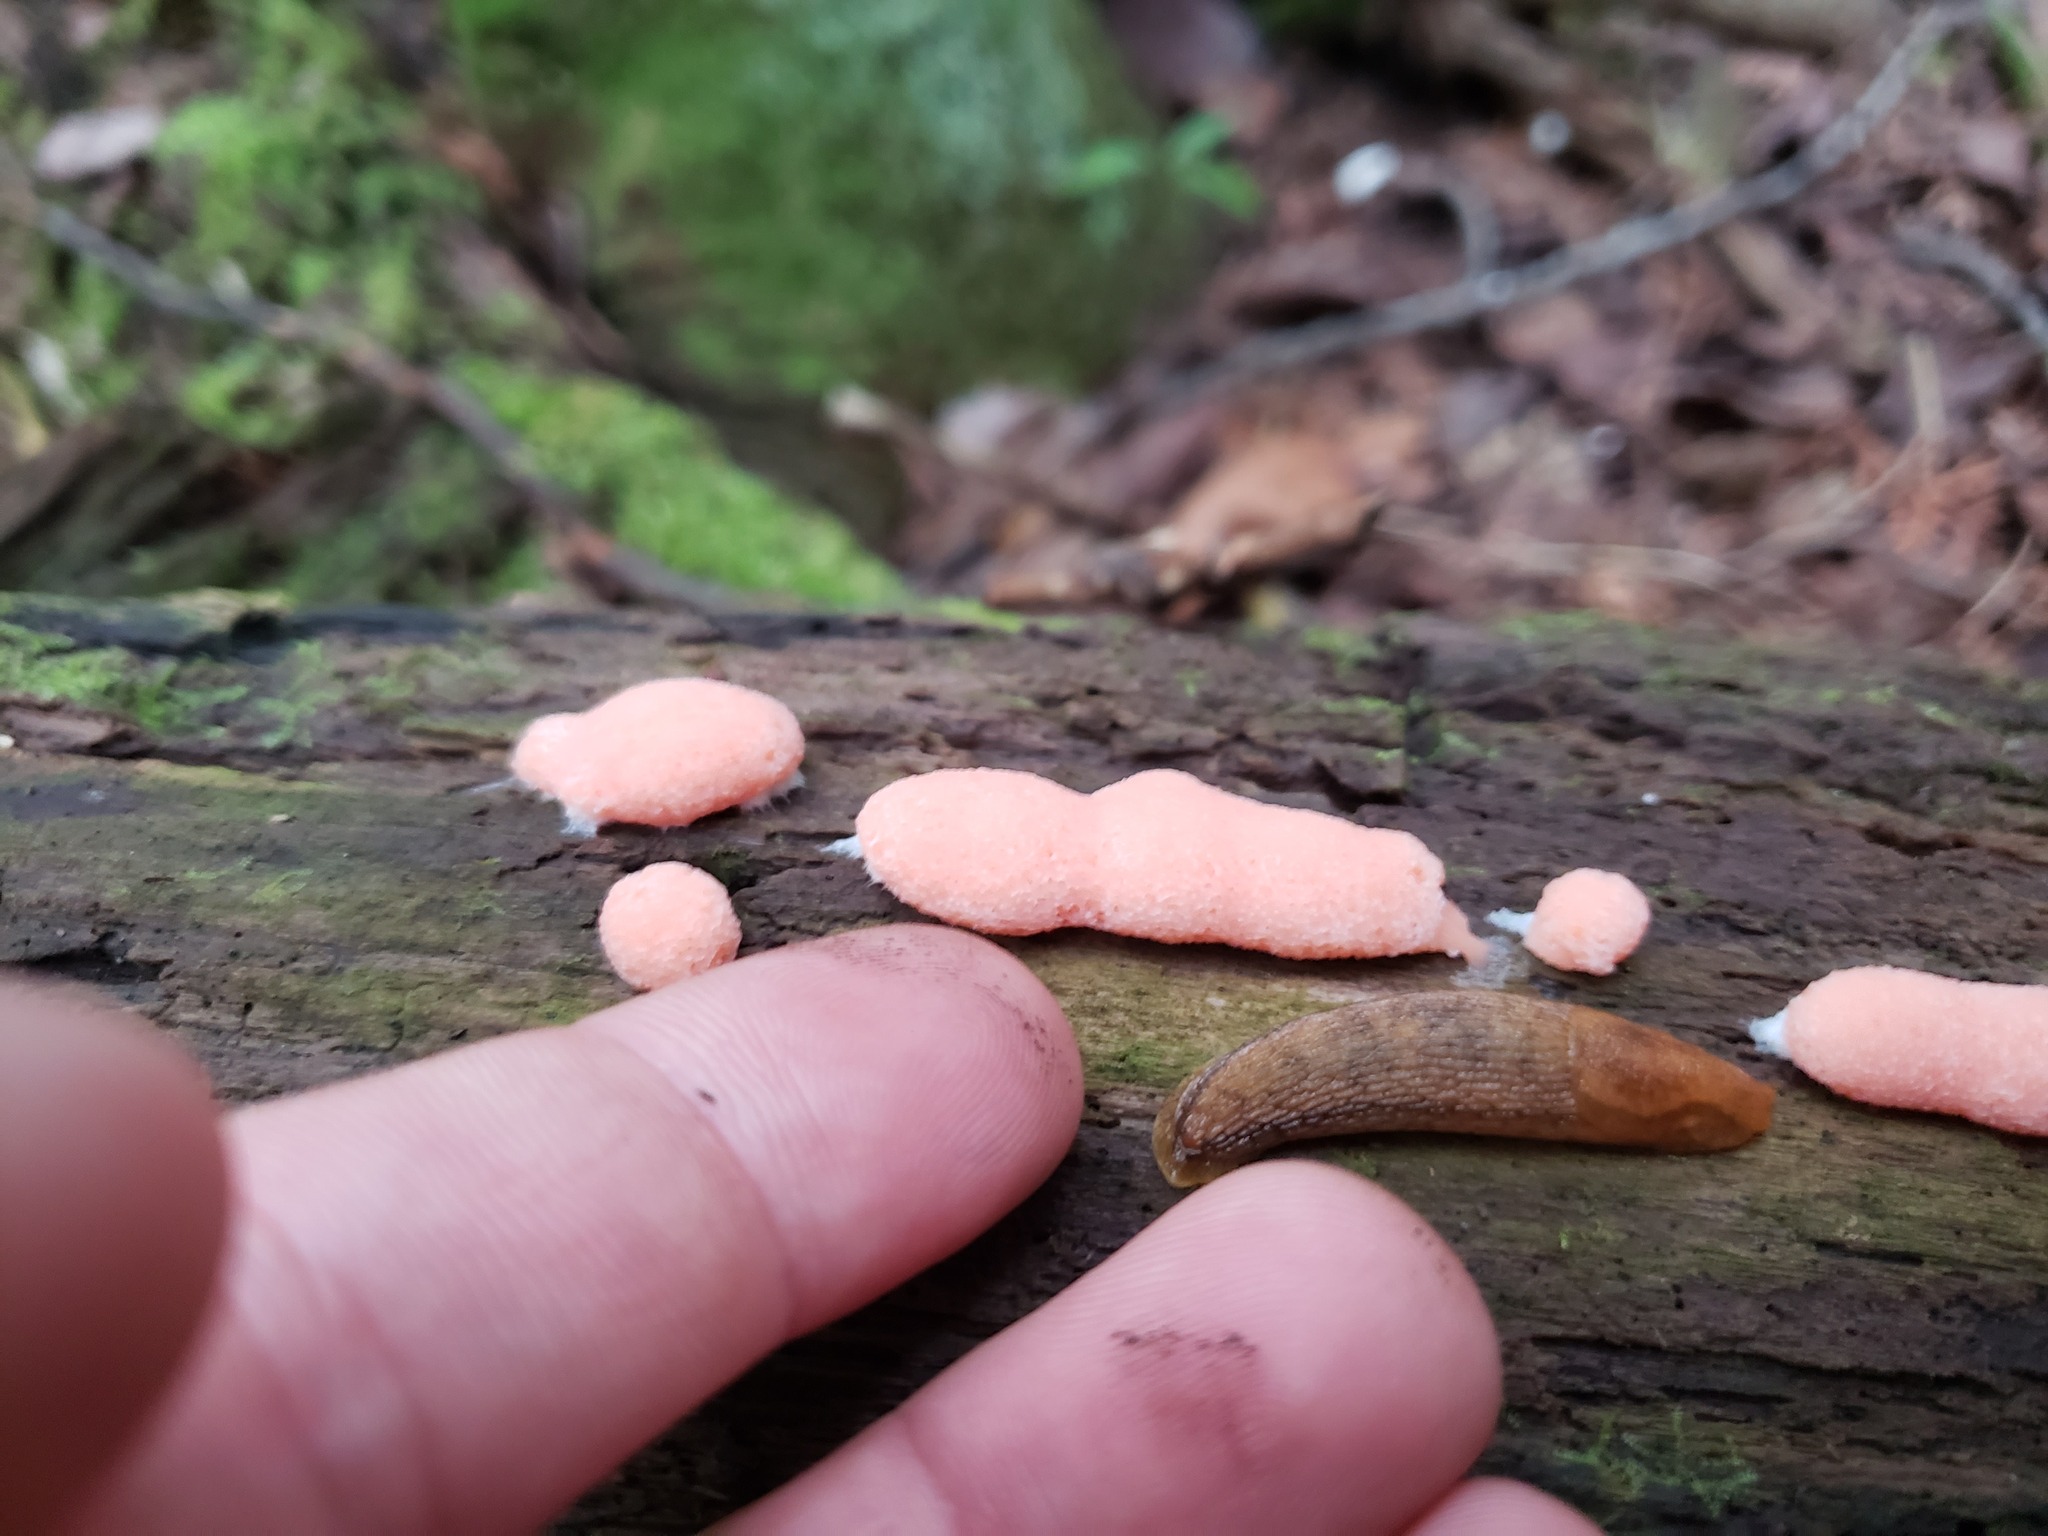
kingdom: Protozoa
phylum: Mycetozoa
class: Myxomycetes
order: Cribrariales
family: Tubiferaceae
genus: Tubifera
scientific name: Tubifera magna
